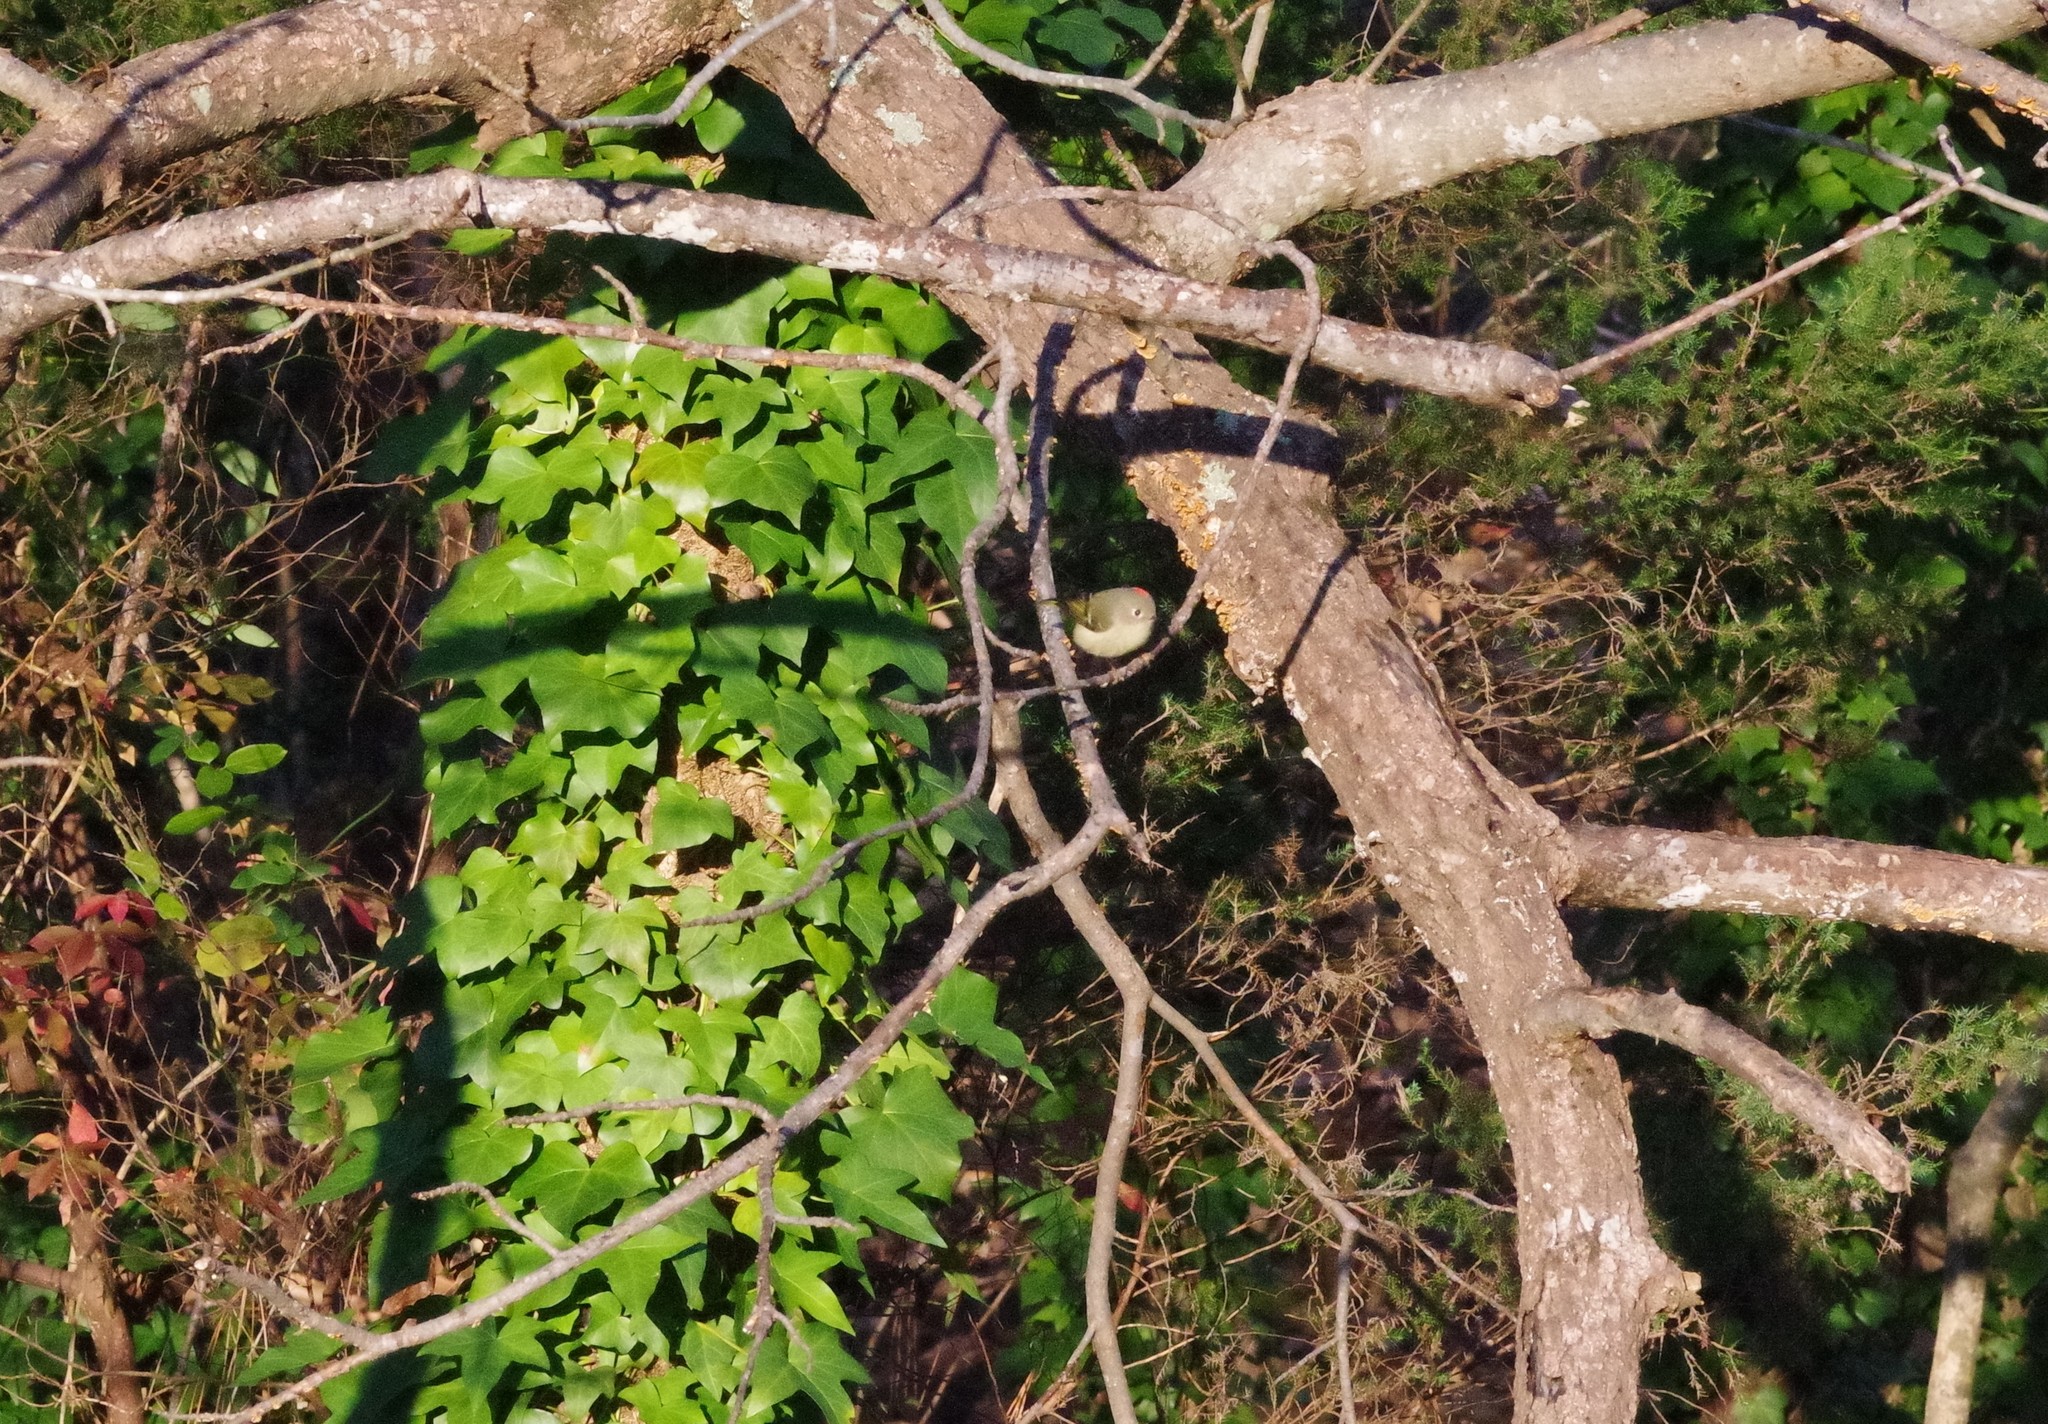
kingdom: Animalia
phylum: Chordata
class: Aves
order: Passeriformes
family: Regulidae
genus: Regulus
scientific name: Regulus calendula
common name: Ruby-crowned kinglet
